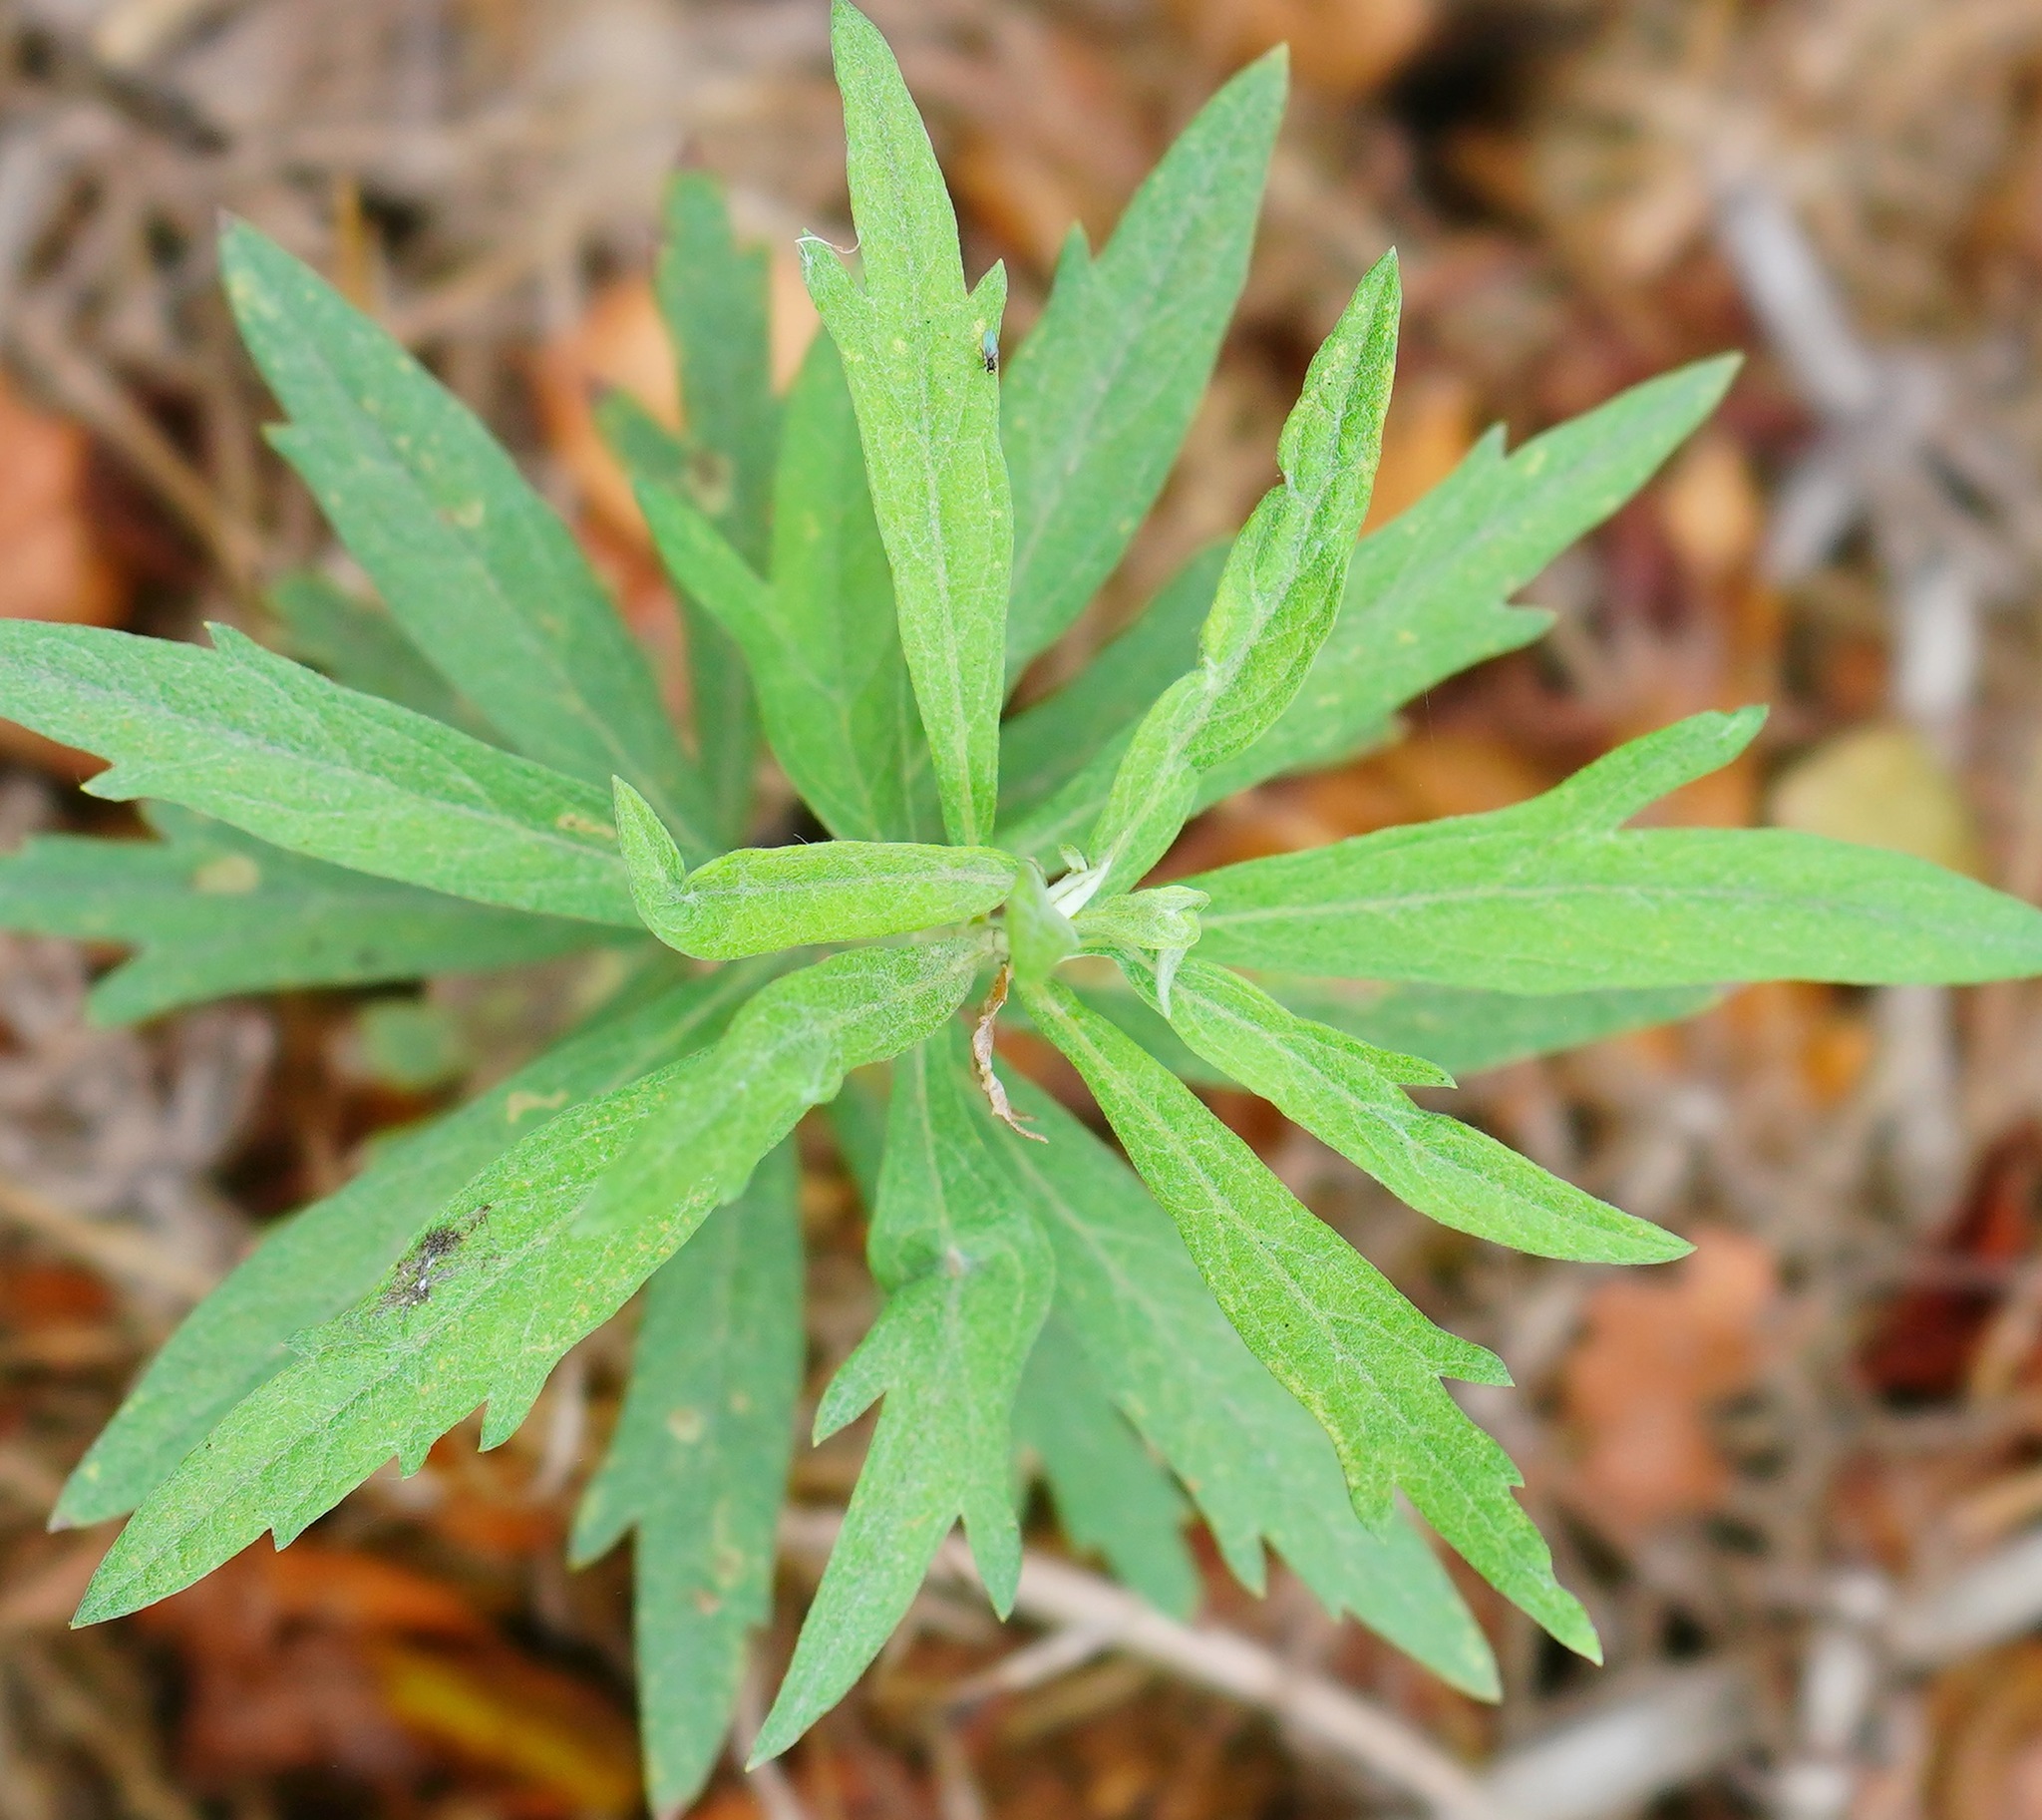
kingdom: Plantae
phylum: Tracheophyta
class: Magnoliopsida
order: Asterales
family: Asteraceae
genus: Artemisia
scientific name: Artemisia douglasiana
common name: Northwest mugwort
